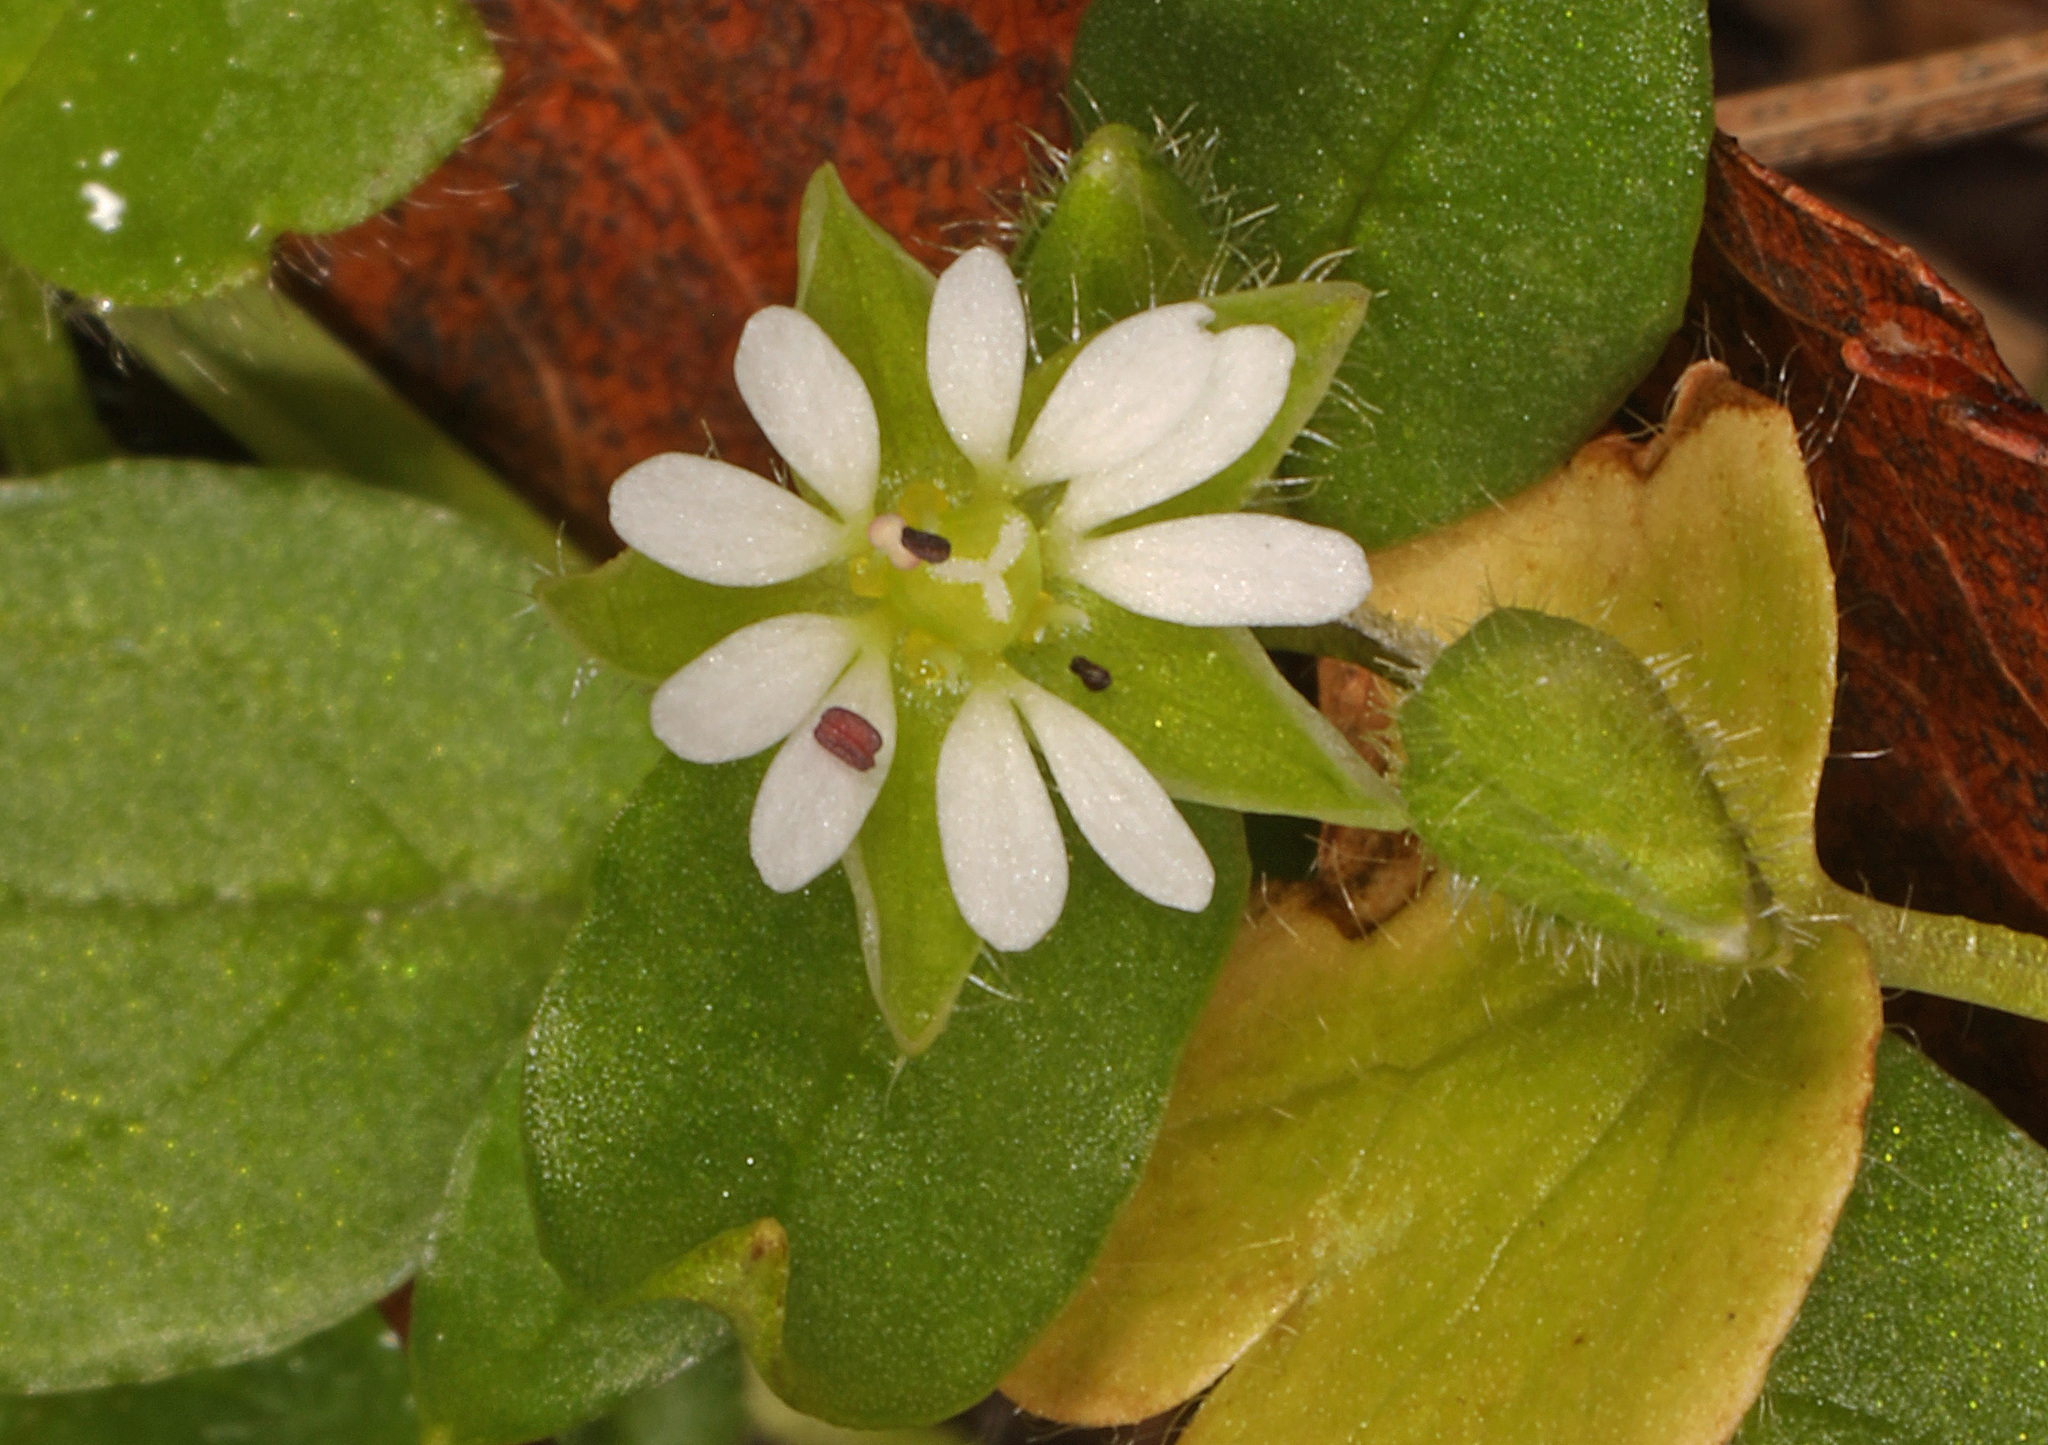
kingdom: Plantae
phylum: Tracheophyta
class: Magnoliopsida
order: Caryophyllales
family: Caryophyllaceae
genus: Stellaria
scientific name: Stellaria media
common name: Common chickweed
